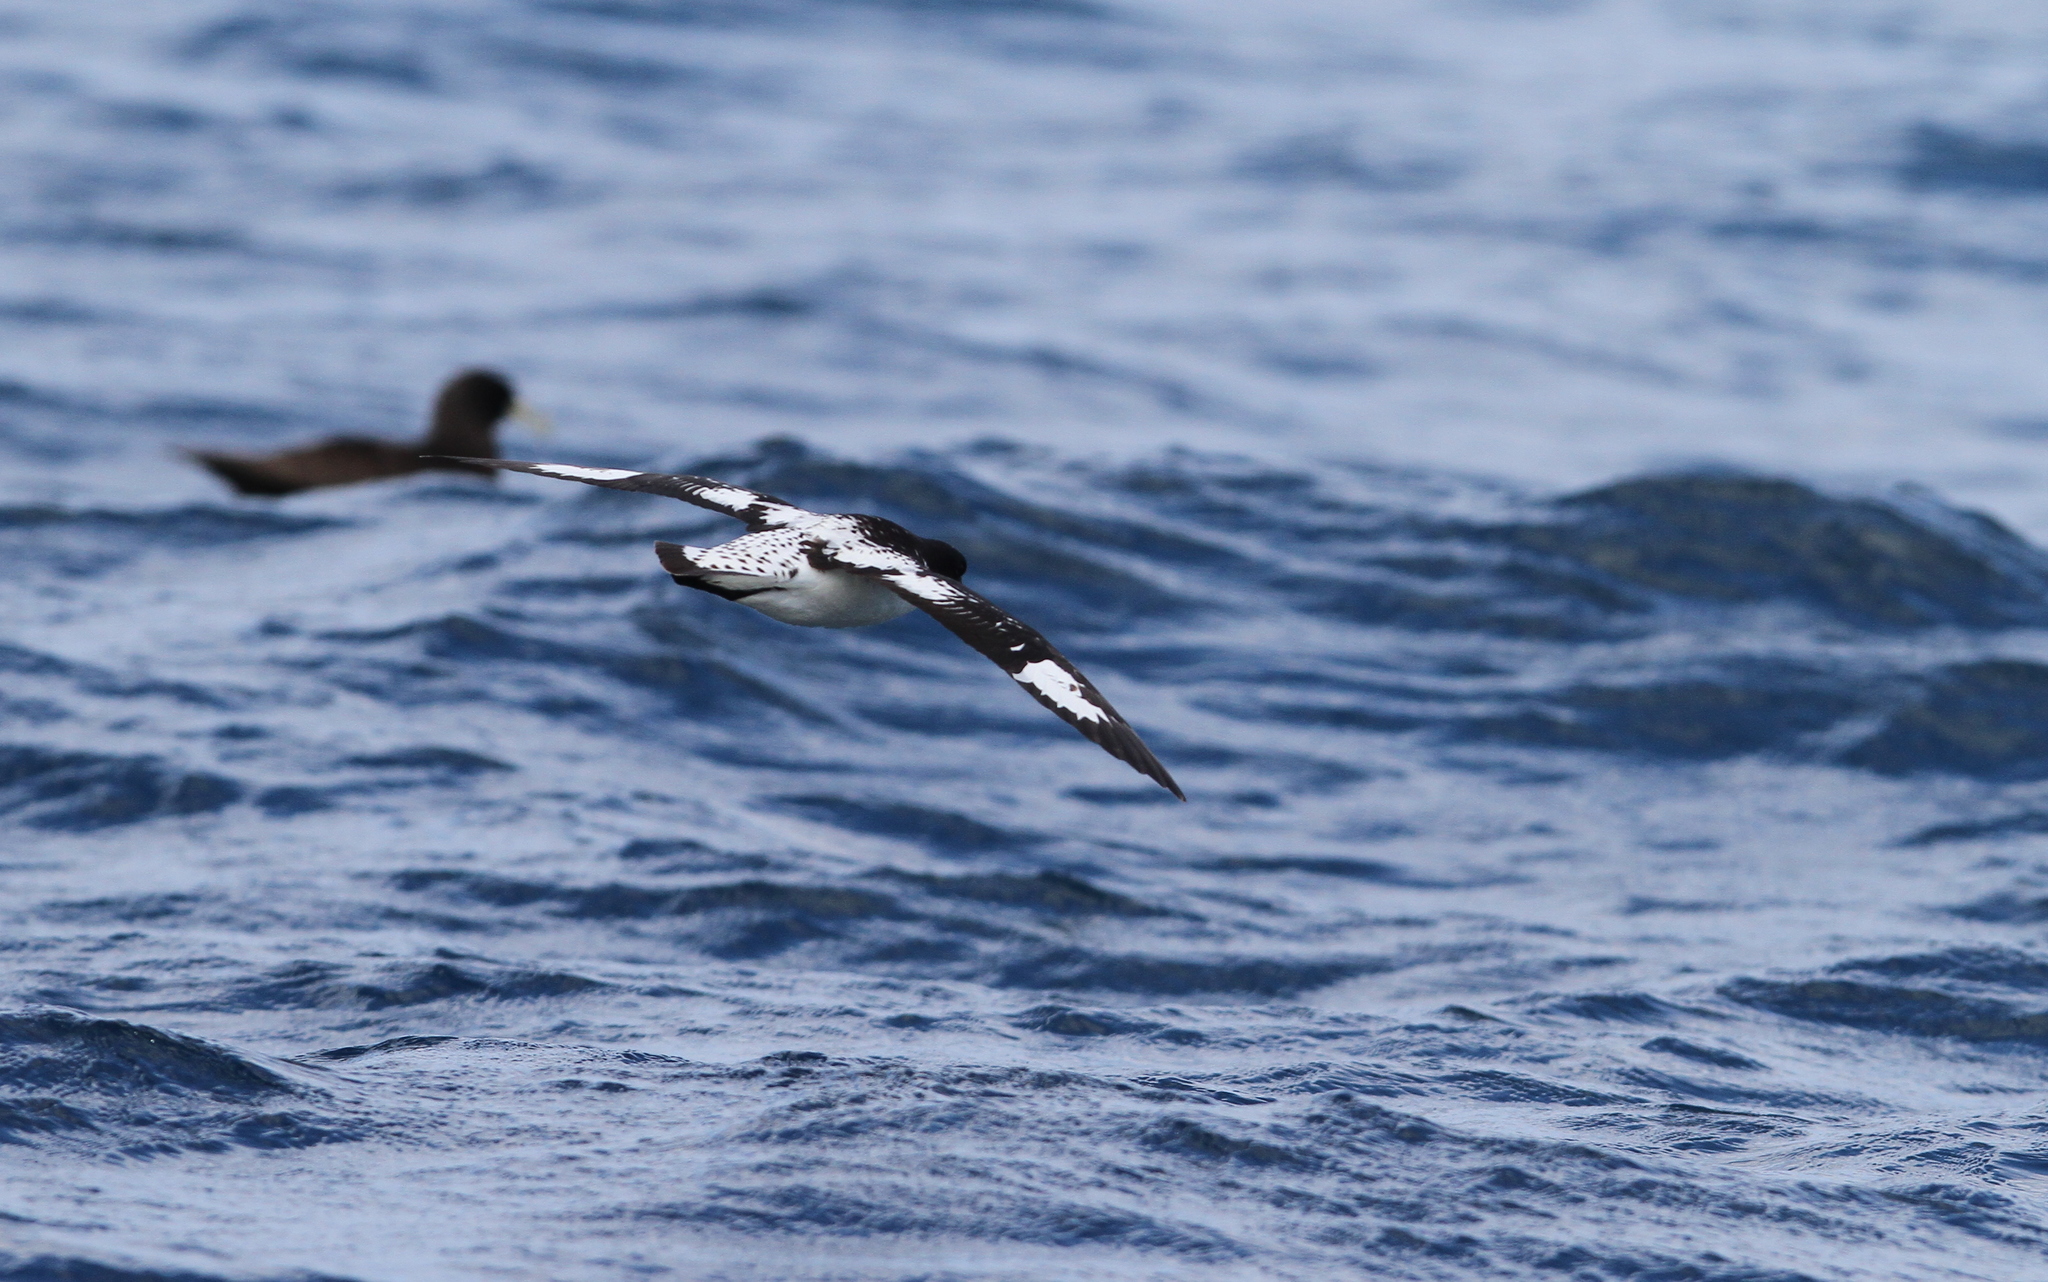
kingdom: Animalia
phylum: Chordata
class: Aves
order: Procellariiformes
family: Procellariidae
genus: Daption
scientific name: Daption capense
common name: Cape petrel
